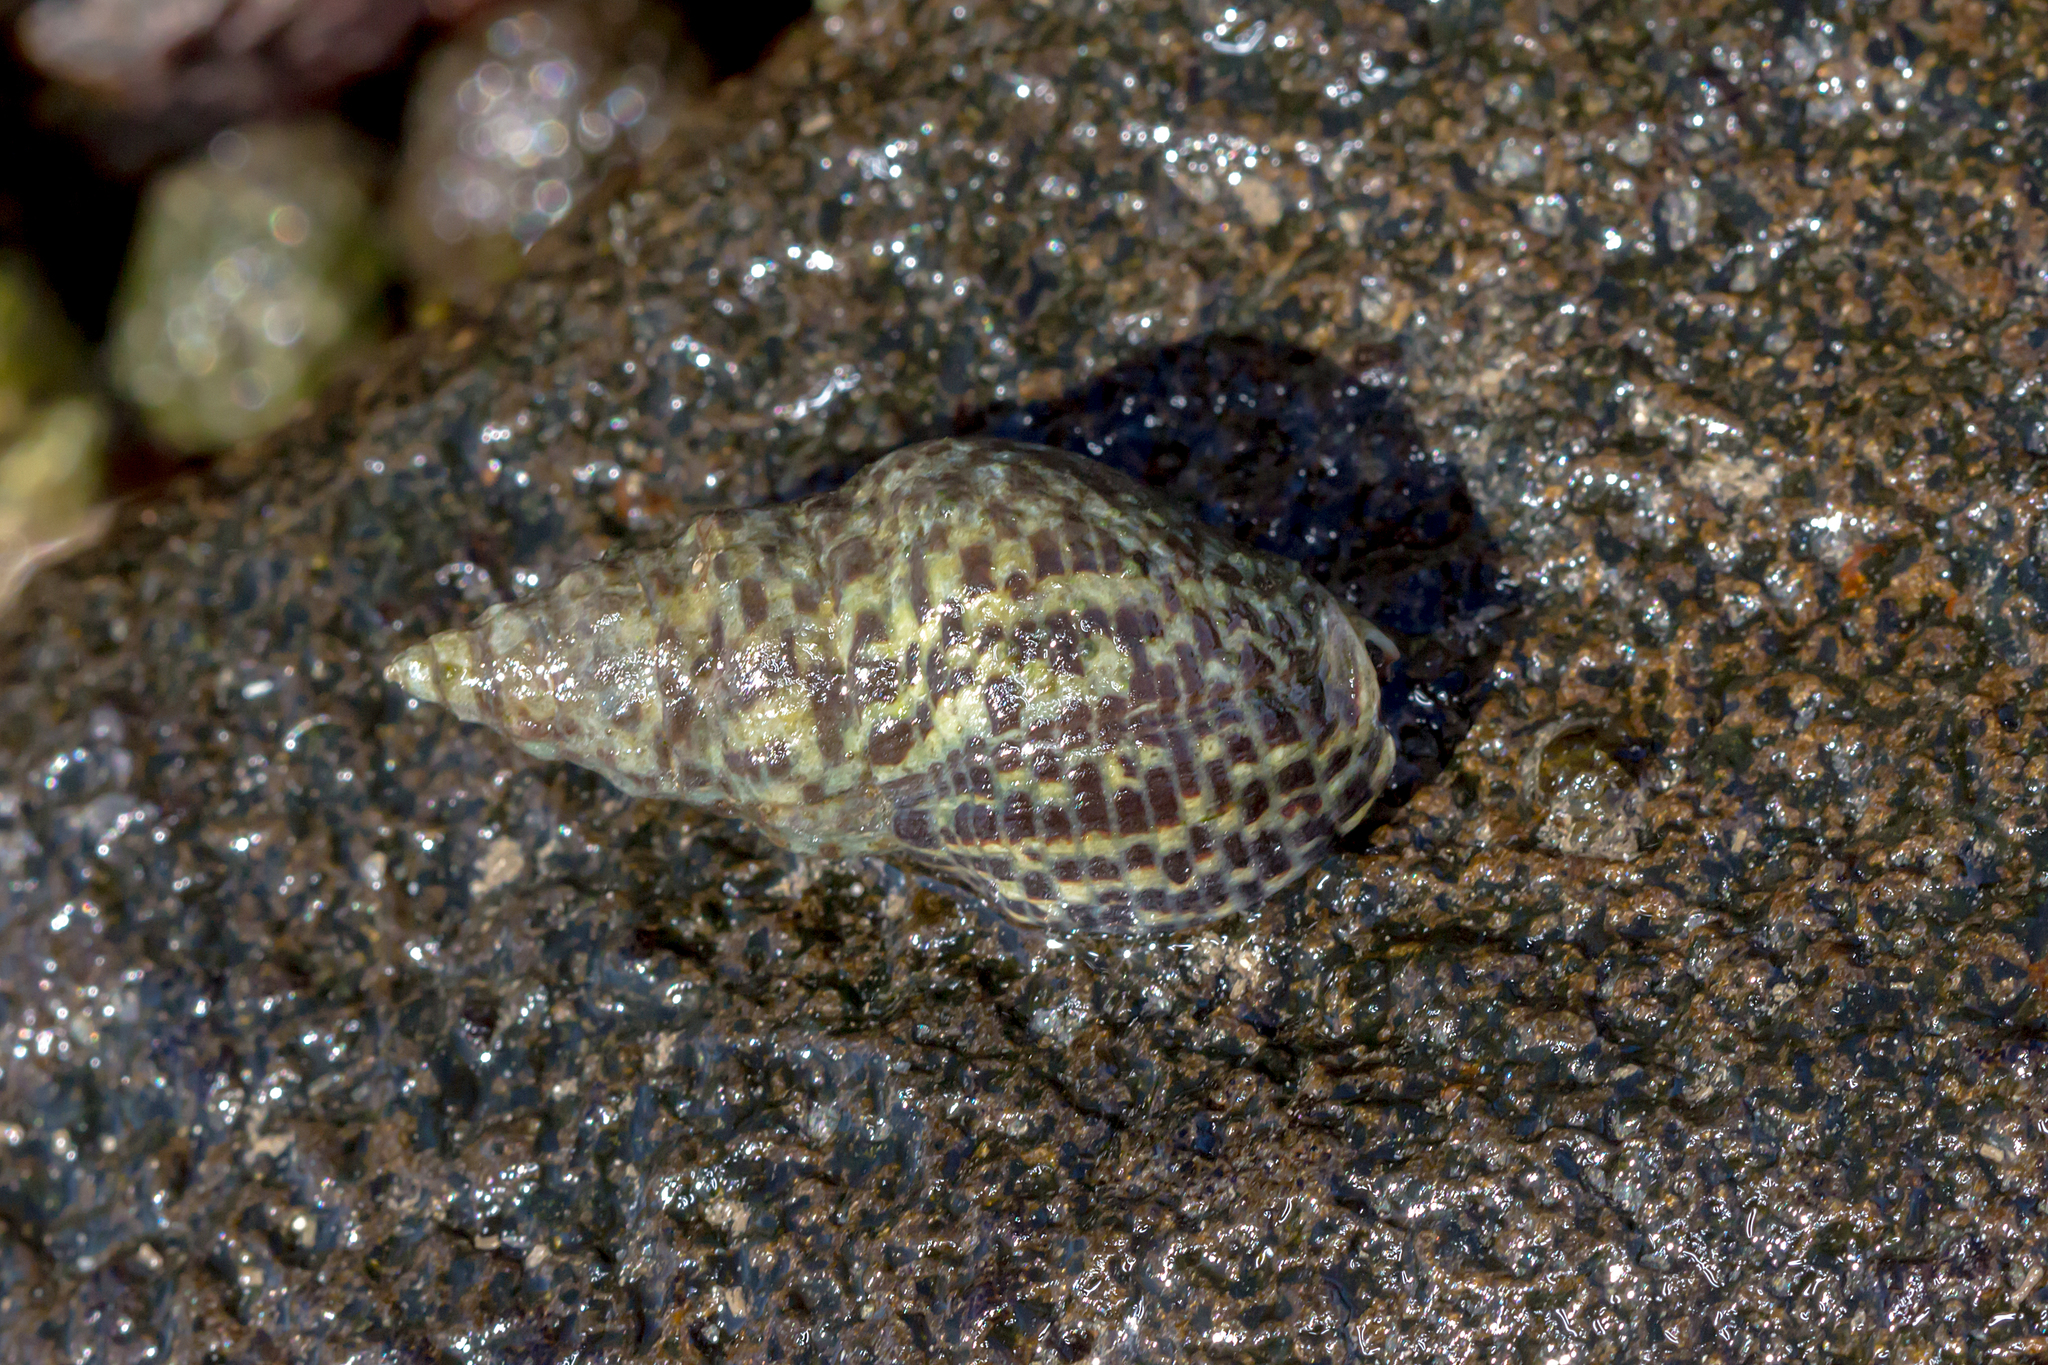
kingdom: Animalia
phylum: Mollusca
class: Gastropoda
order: Neogastropoda
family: Cominellidae
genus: Cominella
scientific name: Cominella lineolata
